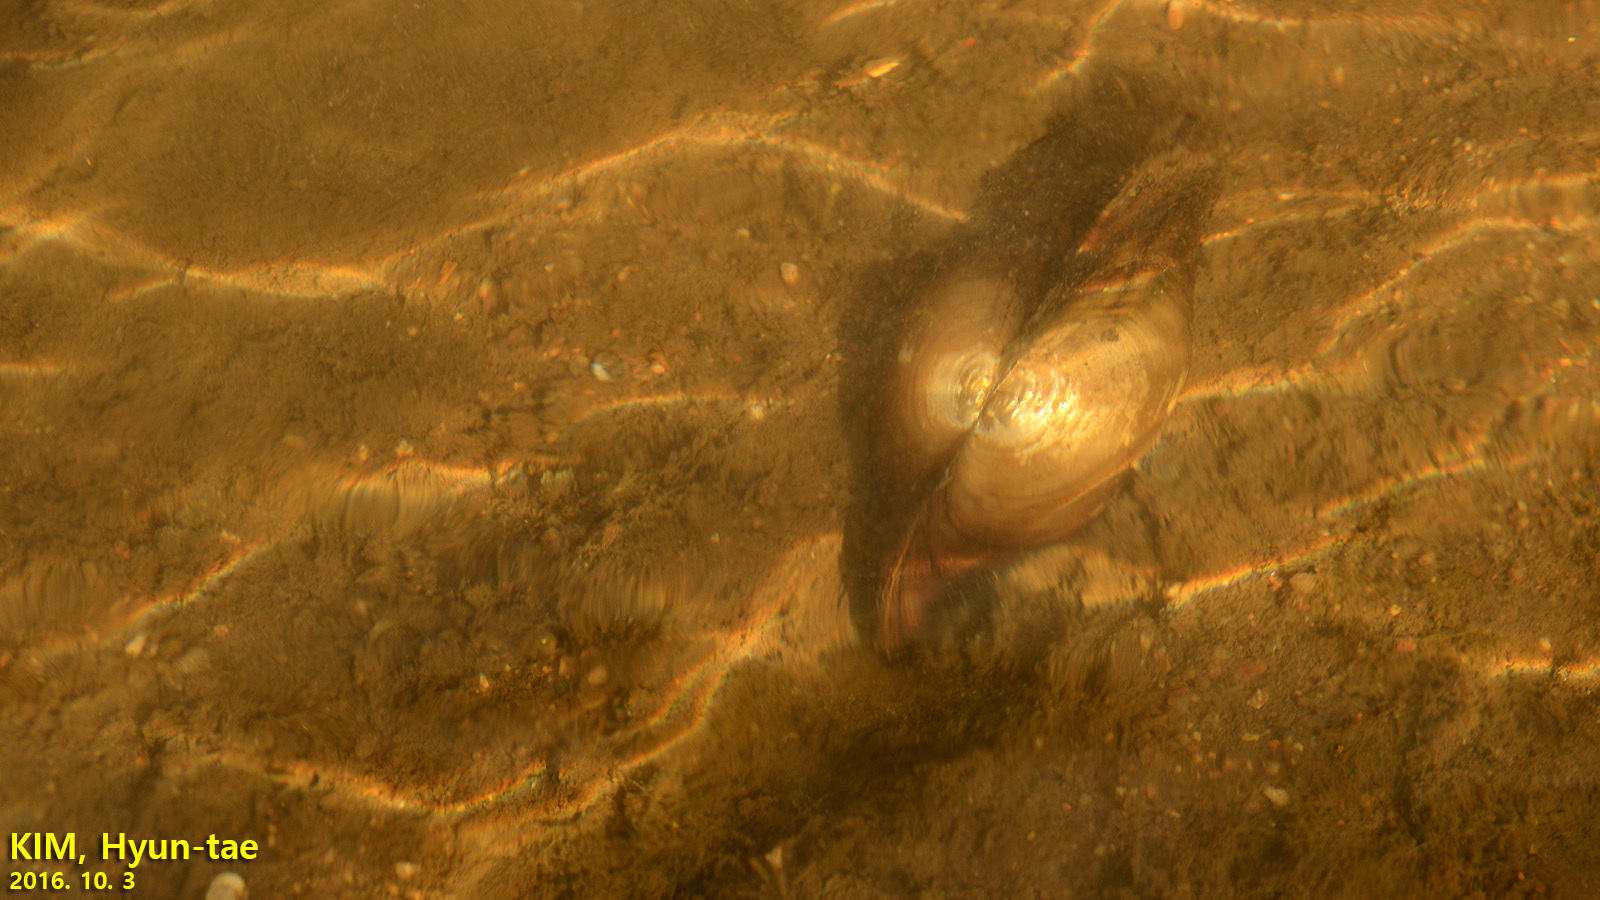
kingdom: Animalia
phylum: Mollusca
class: Bivalvia
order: Unionida
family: Unionidae
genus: Sinanodonta
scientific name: Sinanodonta lauta
